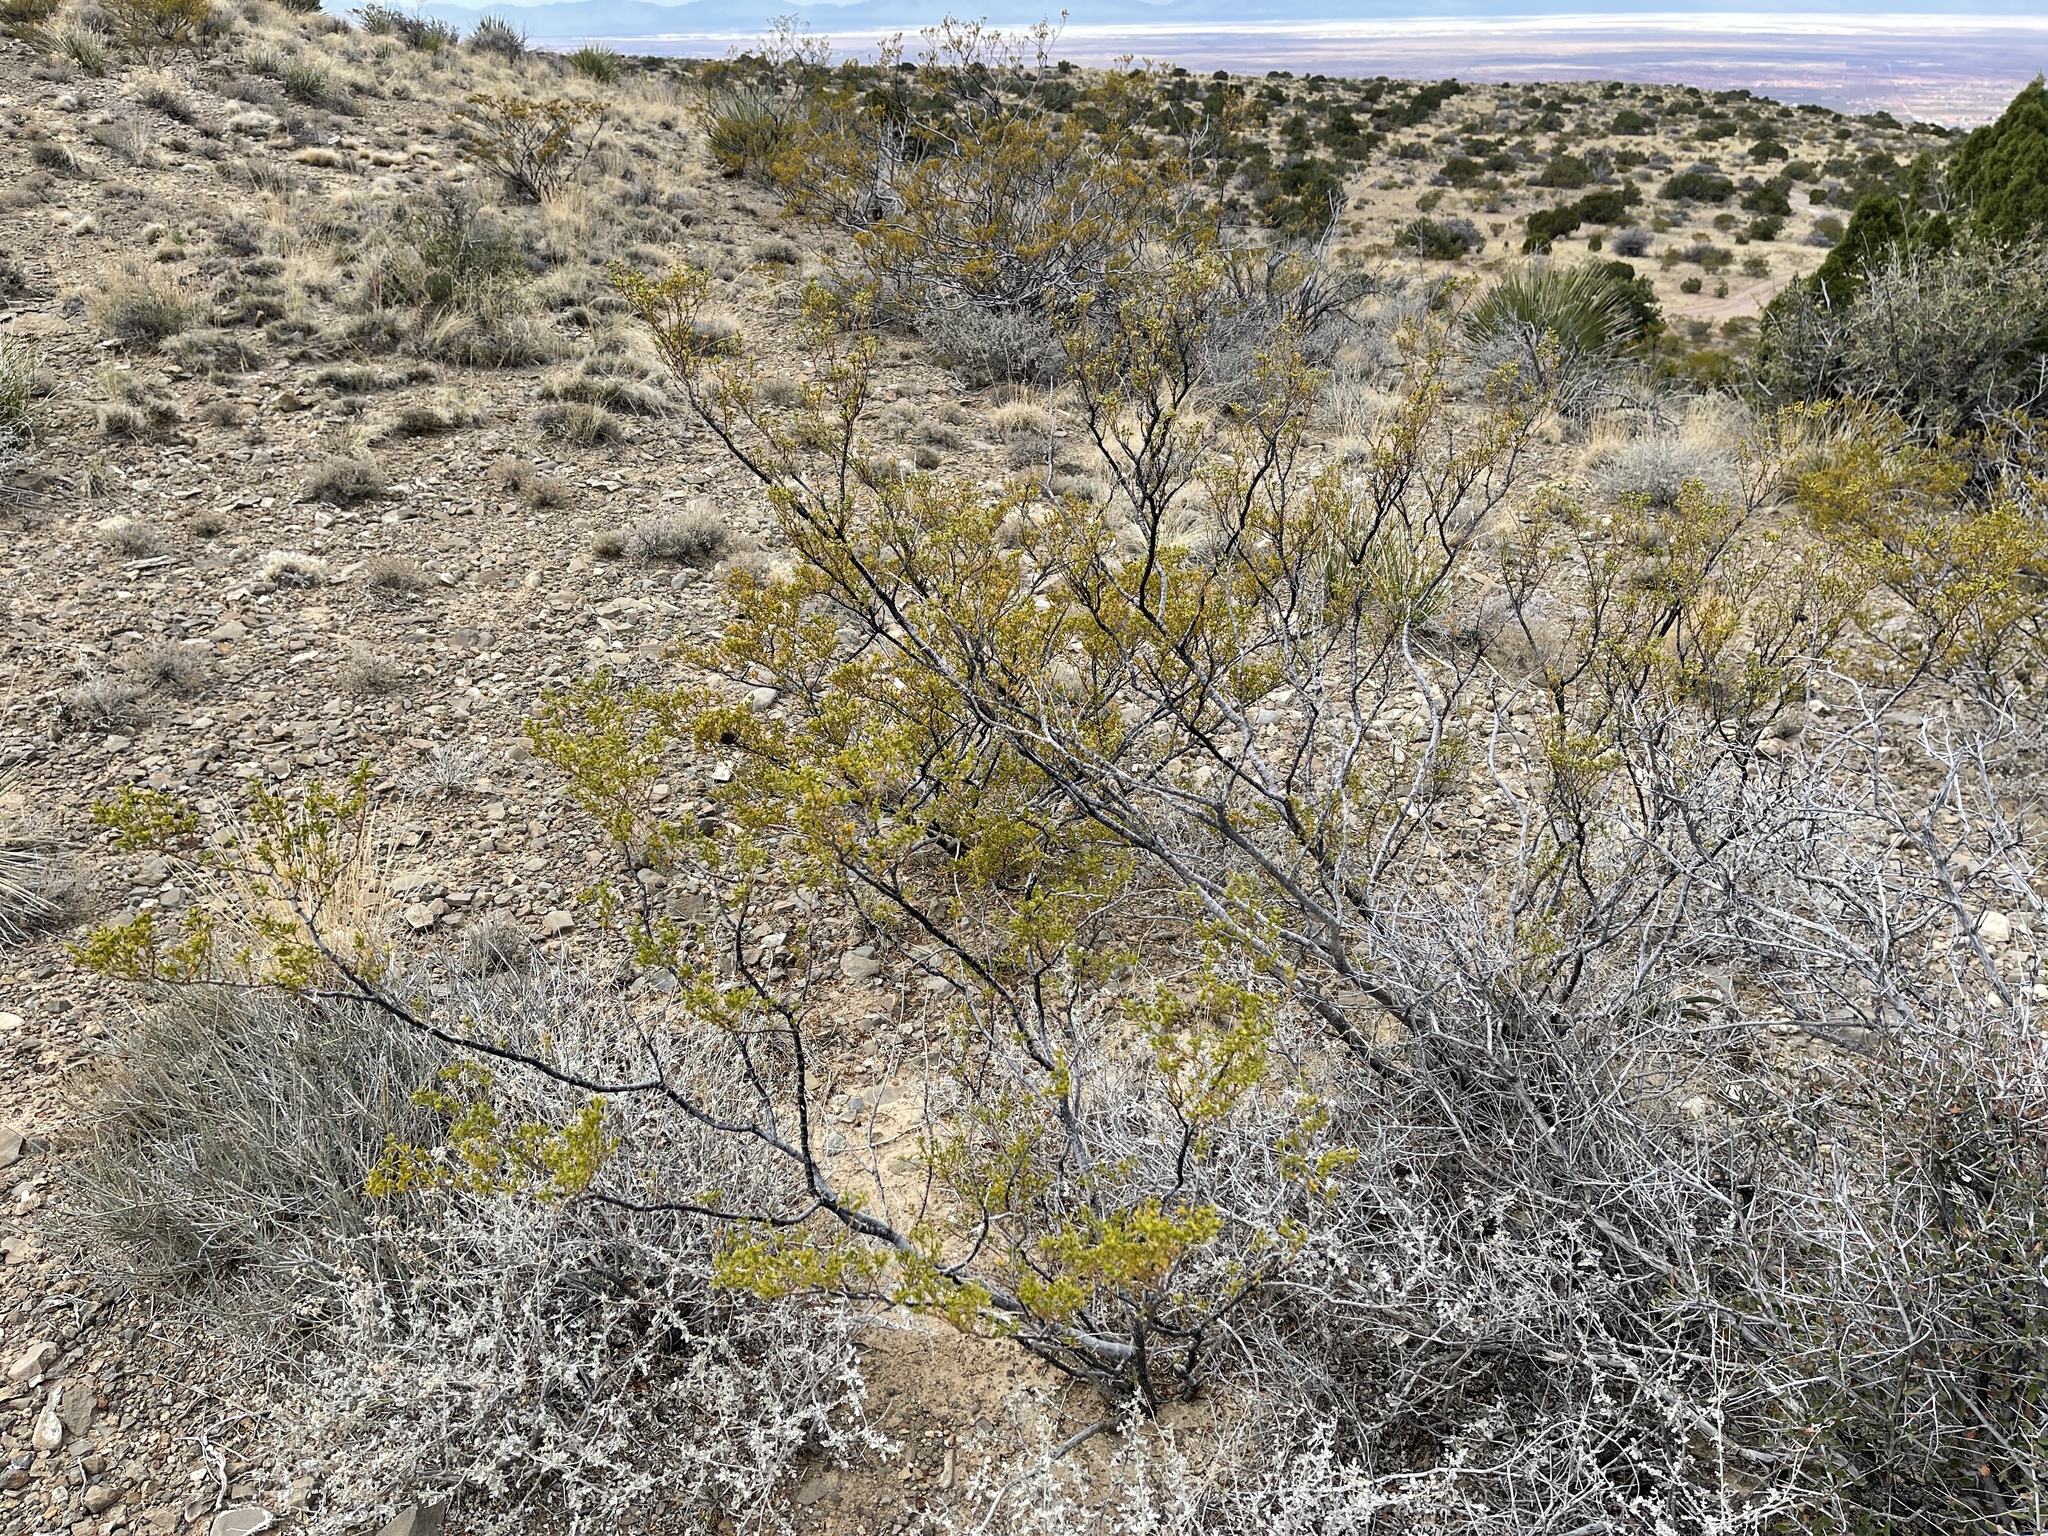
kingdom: Plantae
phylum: Tracheophyta
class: Magnoliopsida
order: Zygophyllales
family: Zygophyllaceae
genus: Larrea
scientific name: Larrea tridentata
